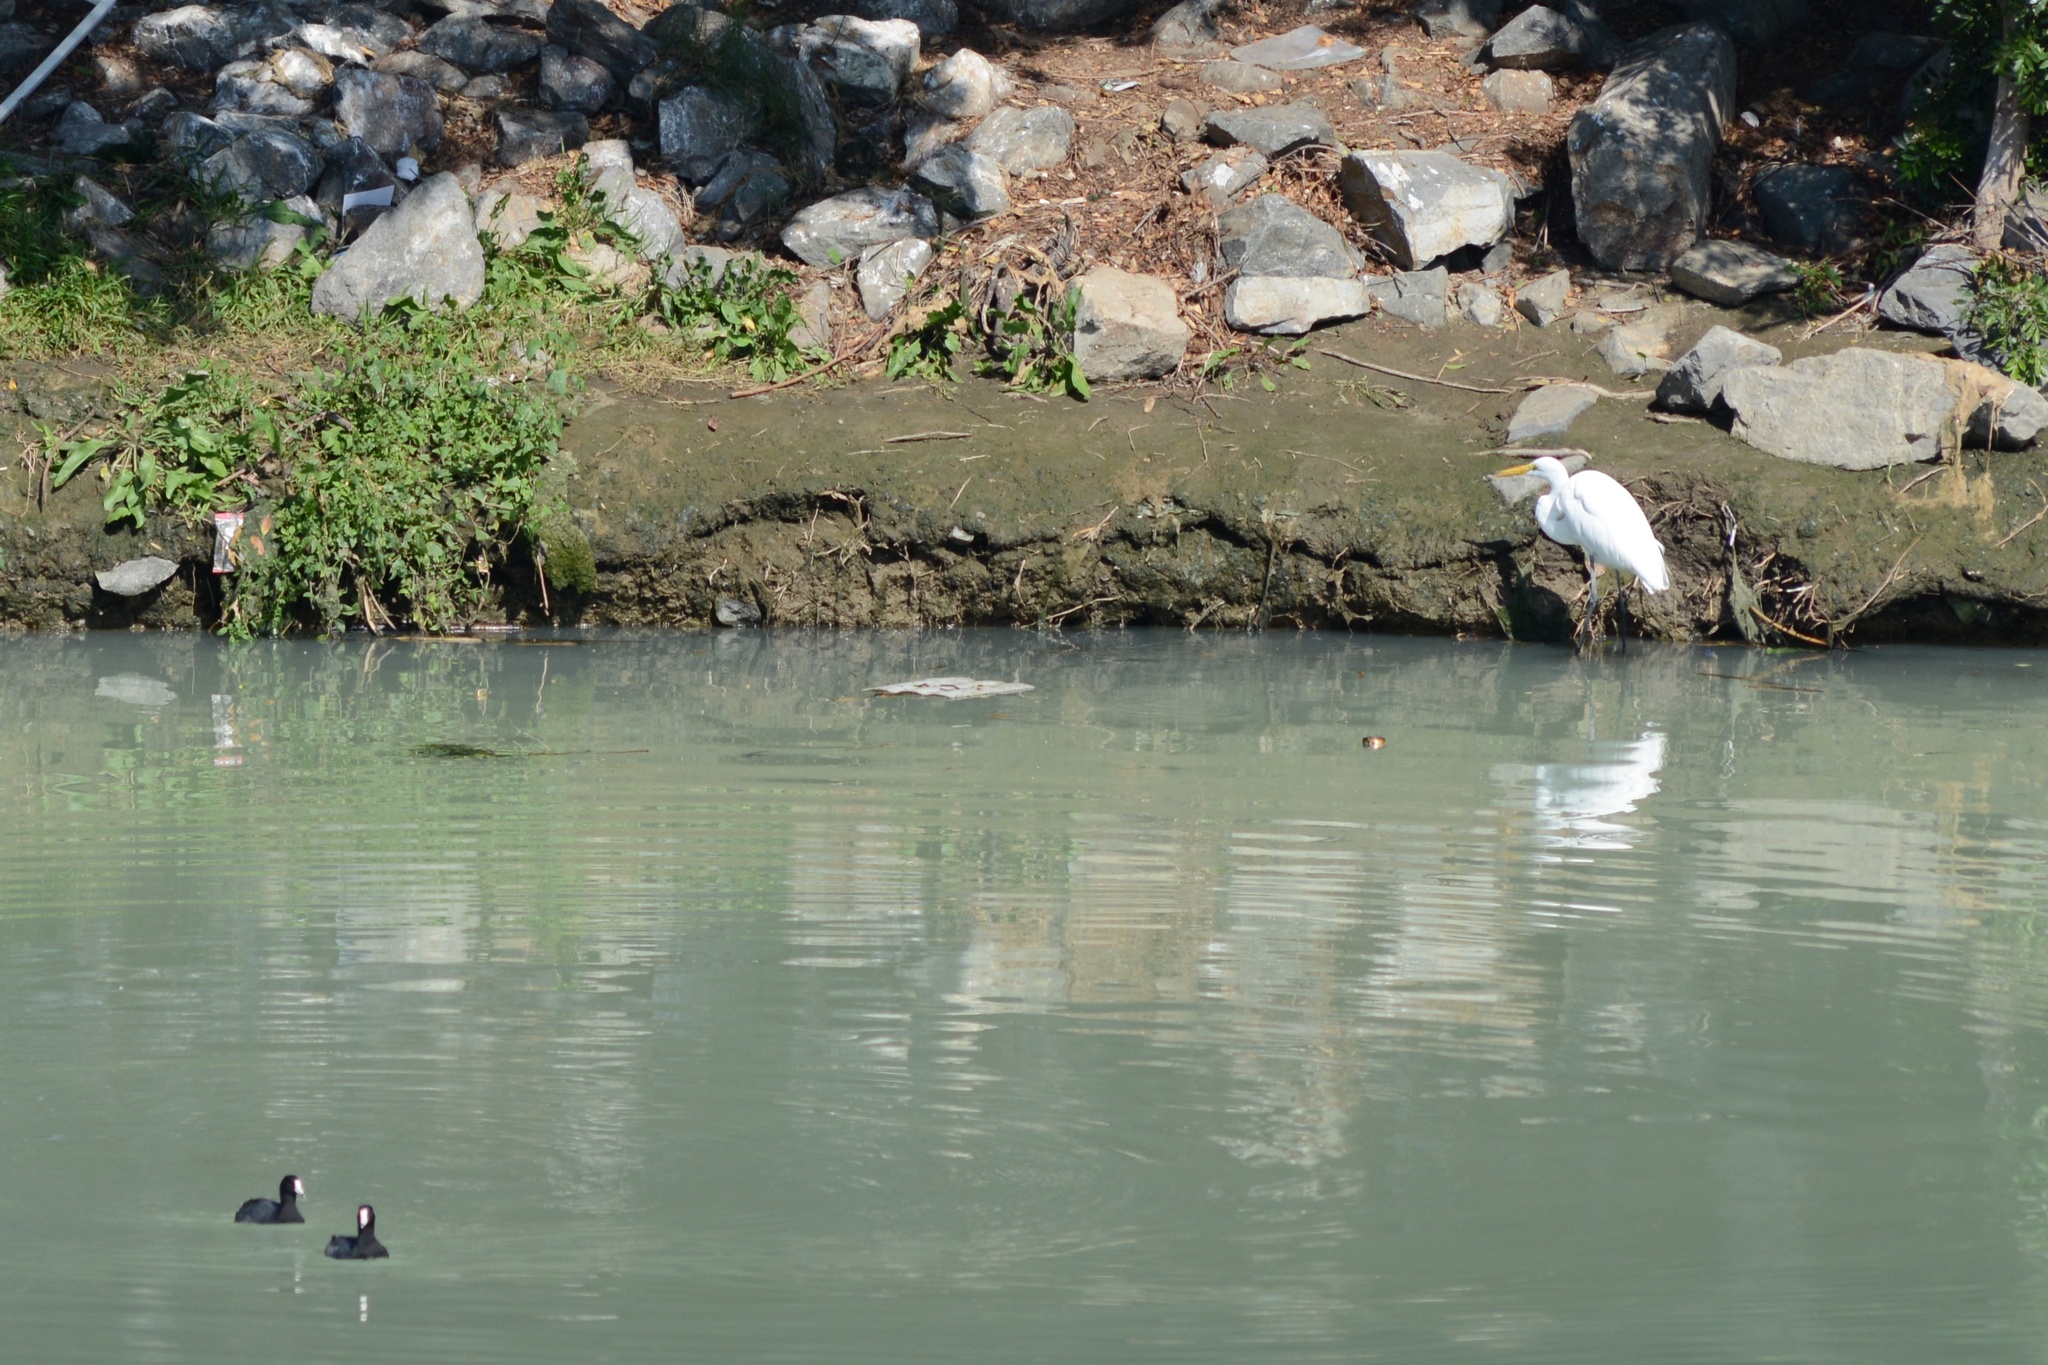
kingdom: Animalia
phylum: Chordata
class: Aves
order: Pelecaniformes
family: Ardeidae
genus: Ardea
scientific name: Ardea alba
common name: Great egret
